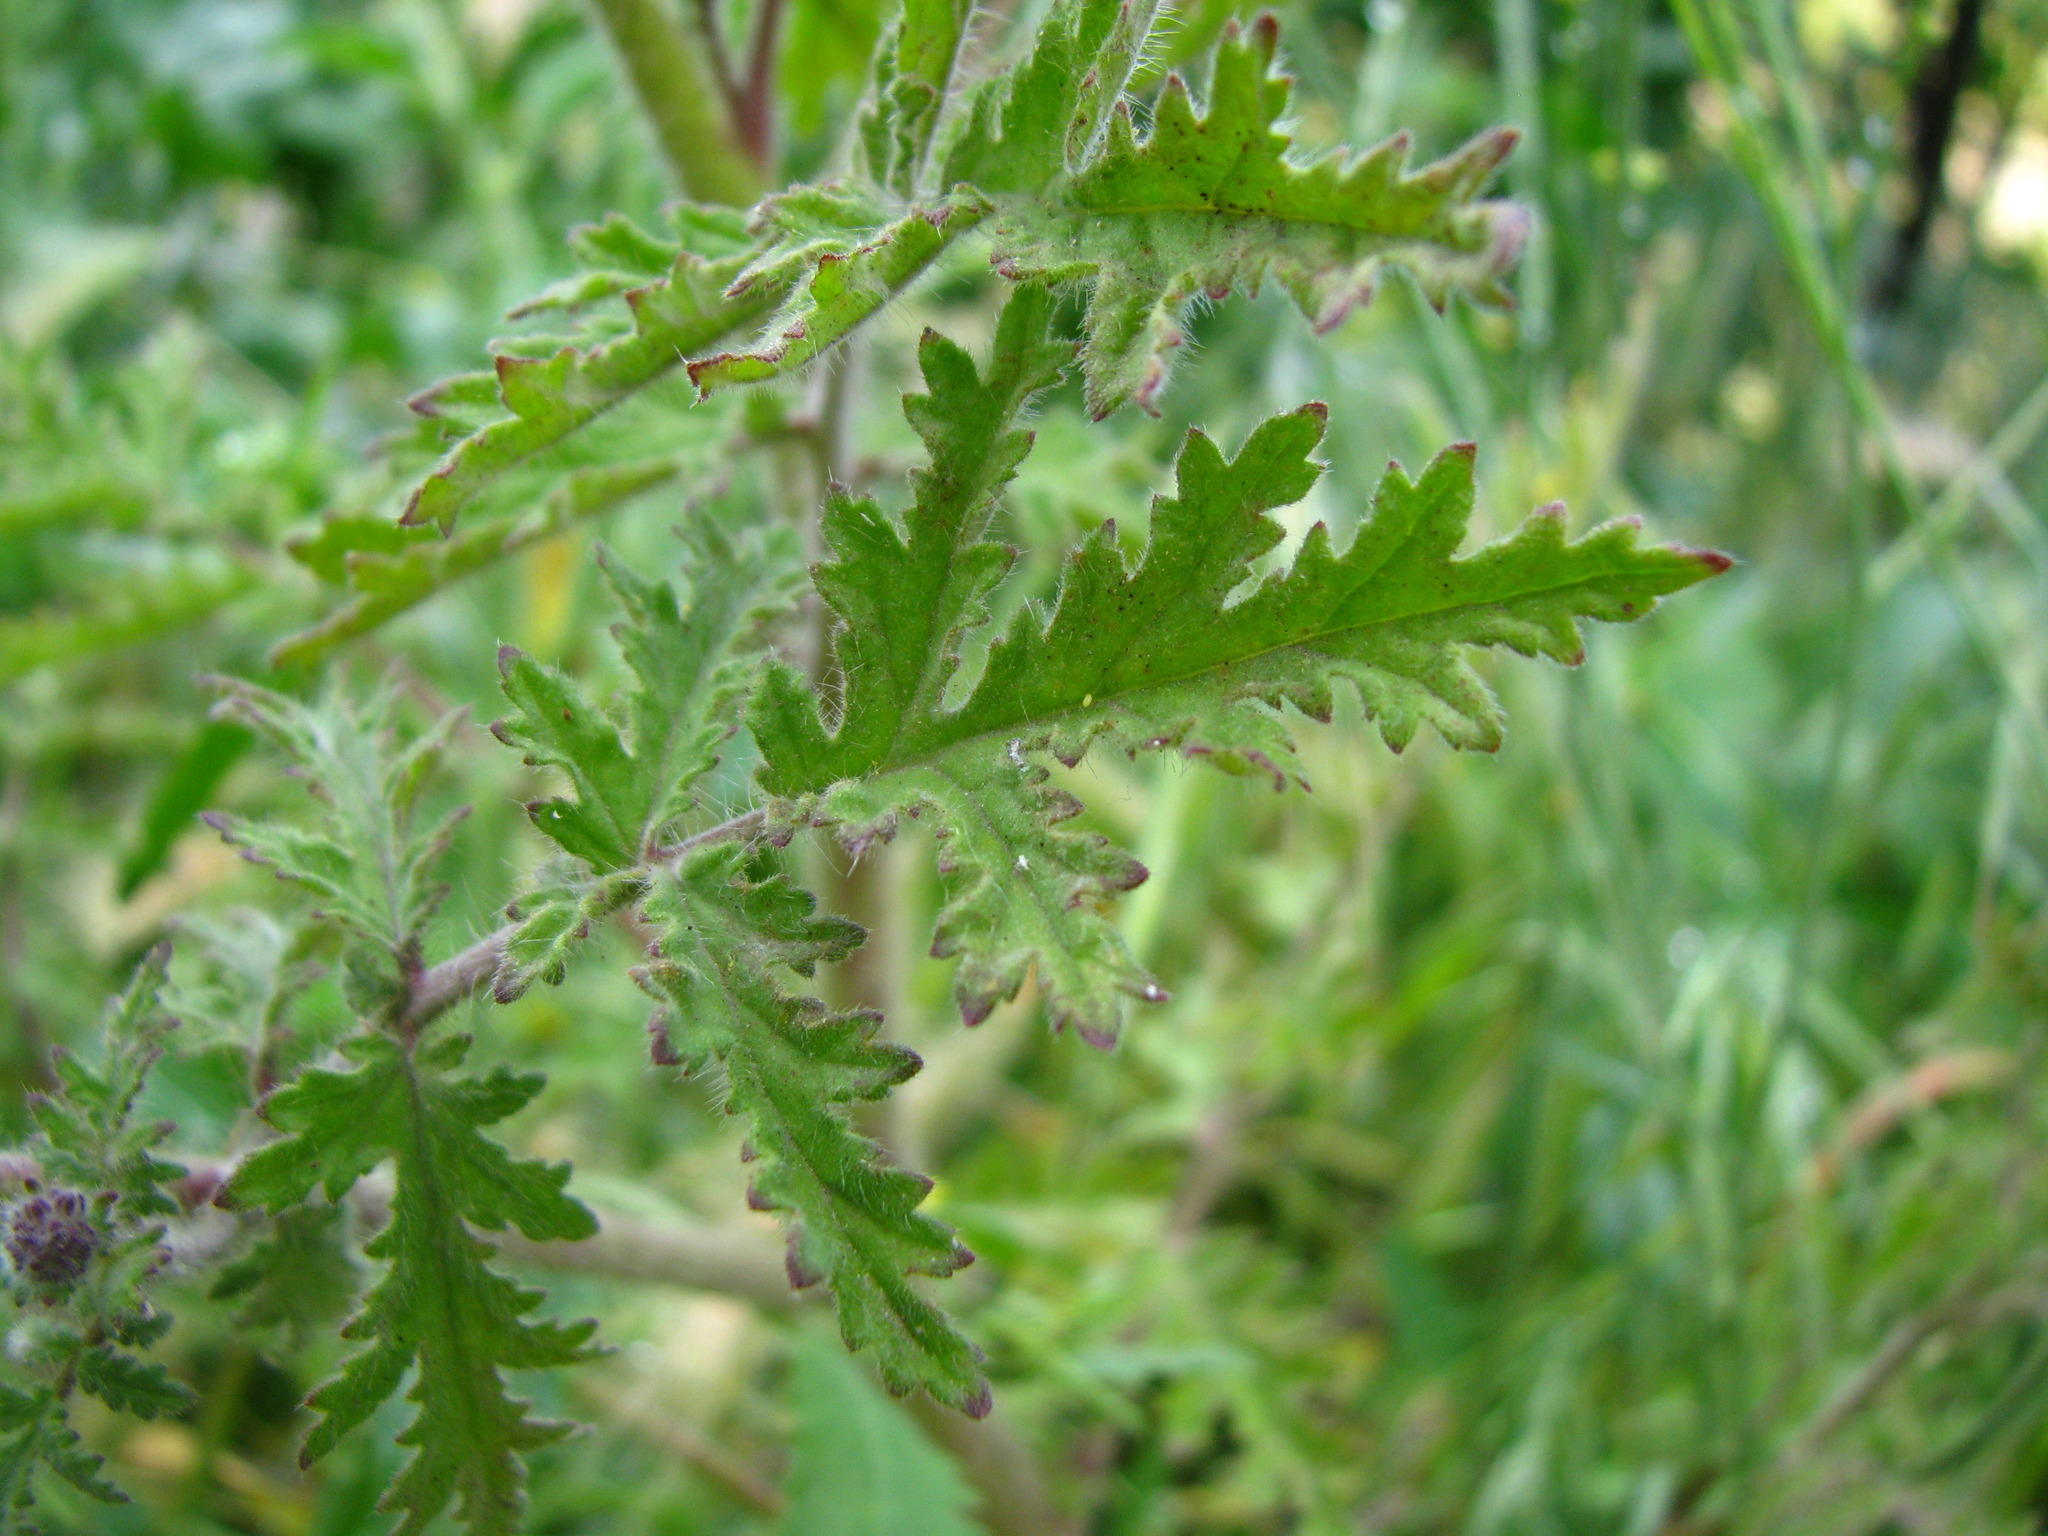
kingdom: Plantae
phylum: Tracheophyta
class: Magnoliopsida
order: Boraginales
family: Hydrophyllaceae
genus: Phacelia
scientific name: Phacelia hubbyi
